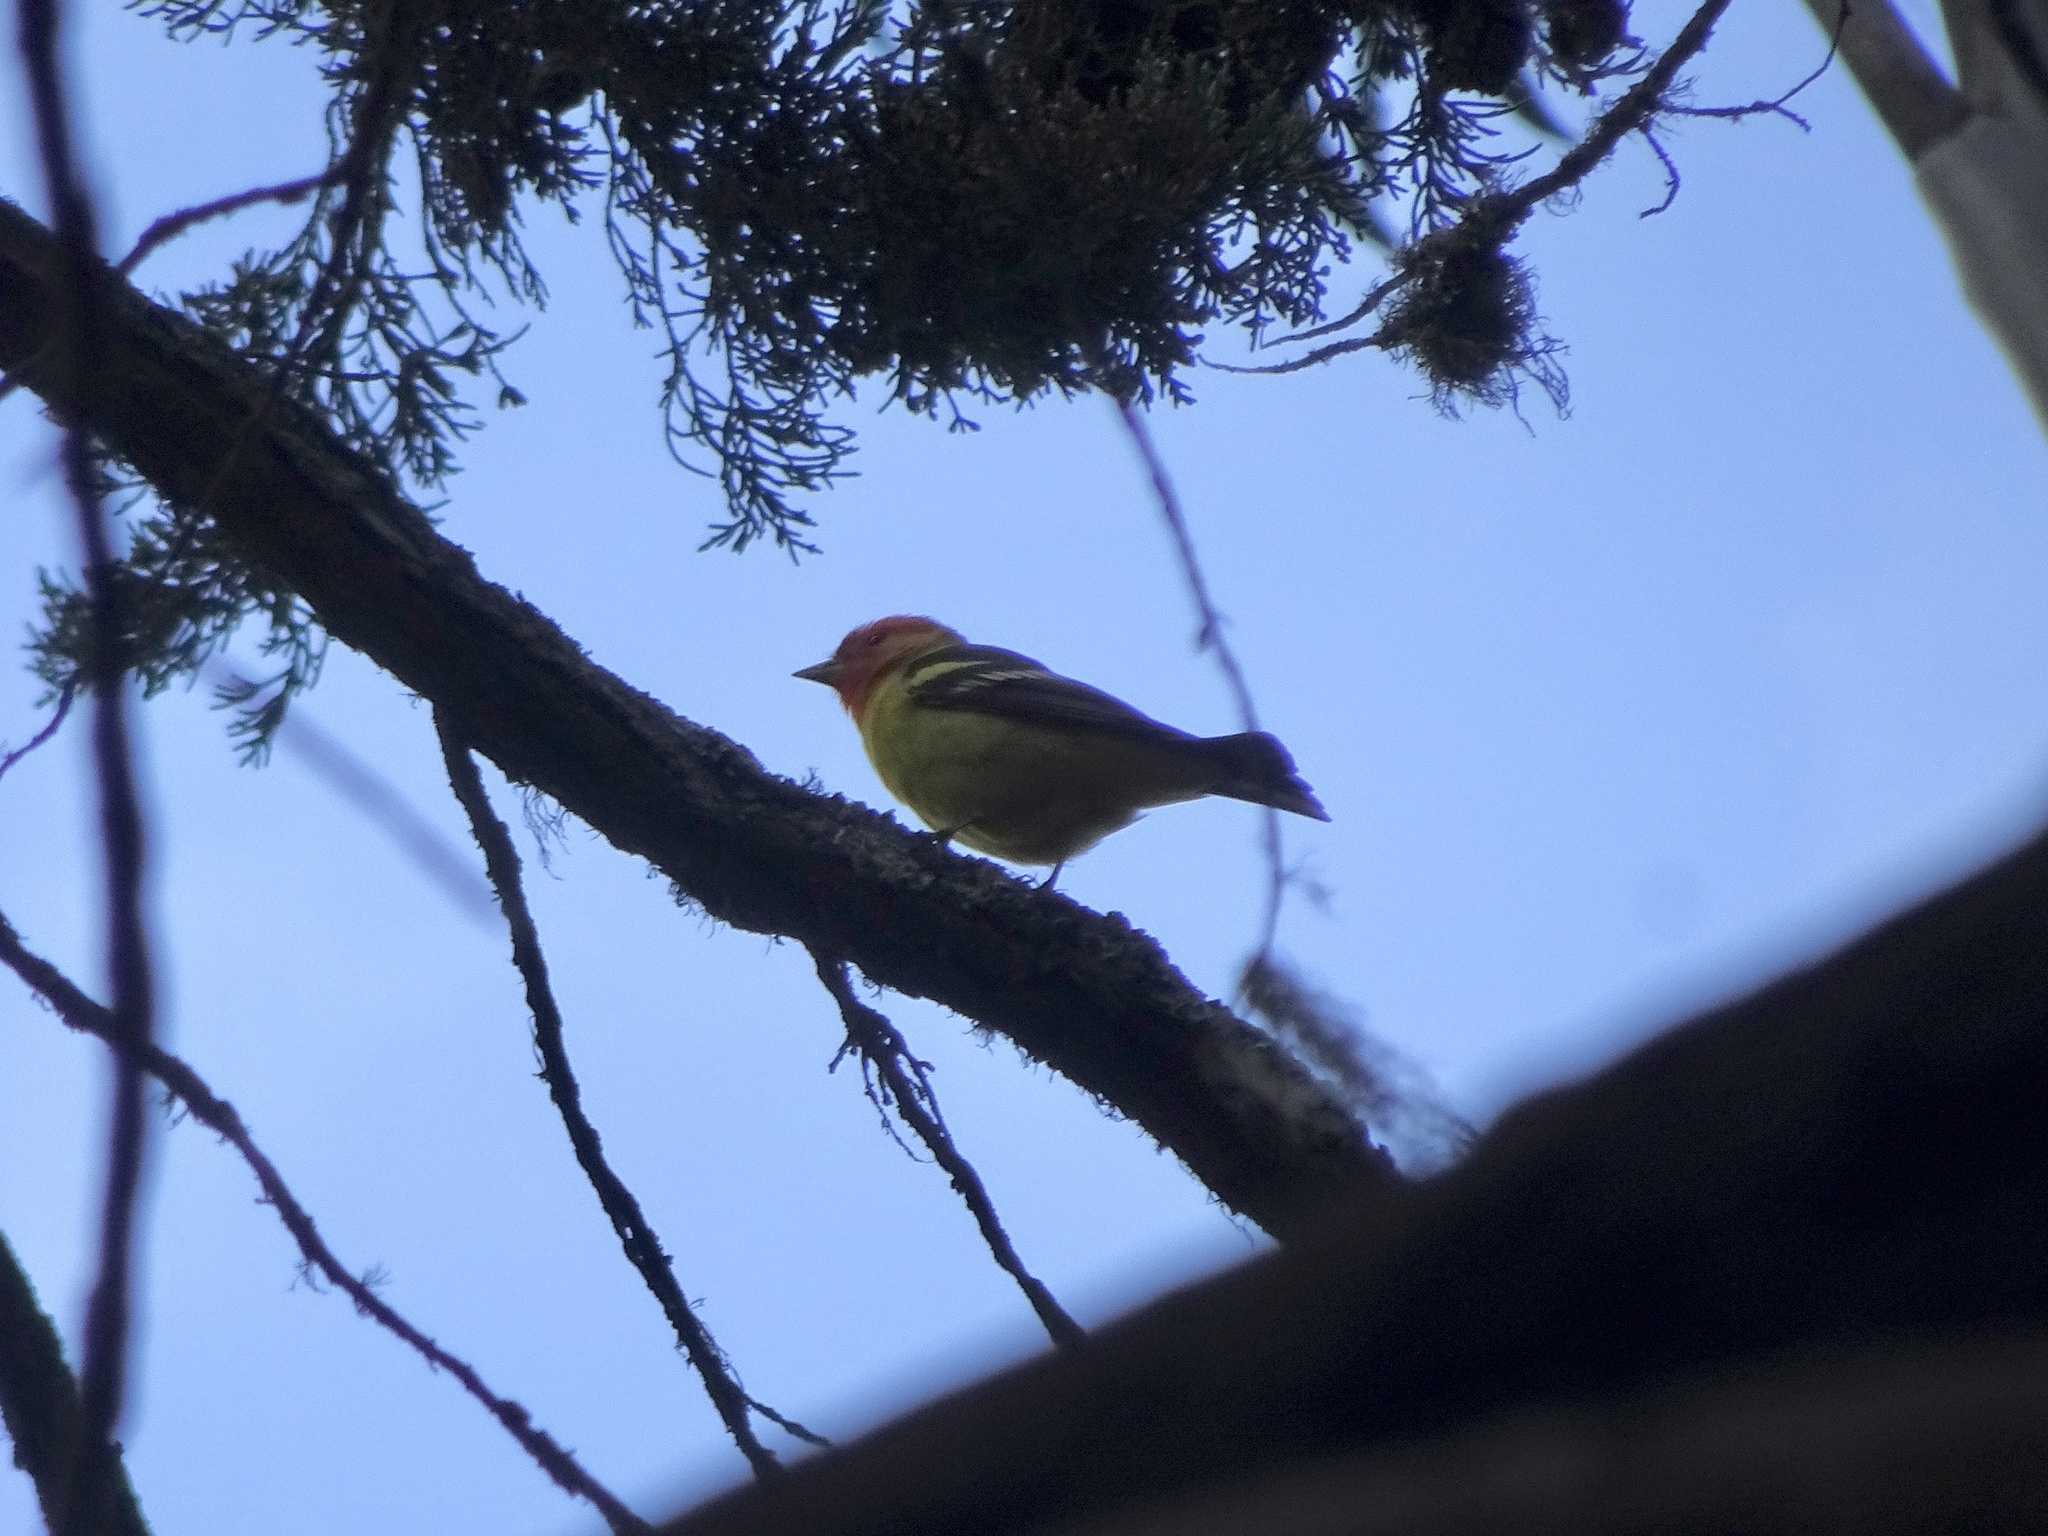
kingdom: Animalia
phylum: Chordata
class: Aves
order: Passeriformes
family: Cardinalidae
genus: Piranga
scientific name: Piranga ludoviciana
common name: Western tanager
